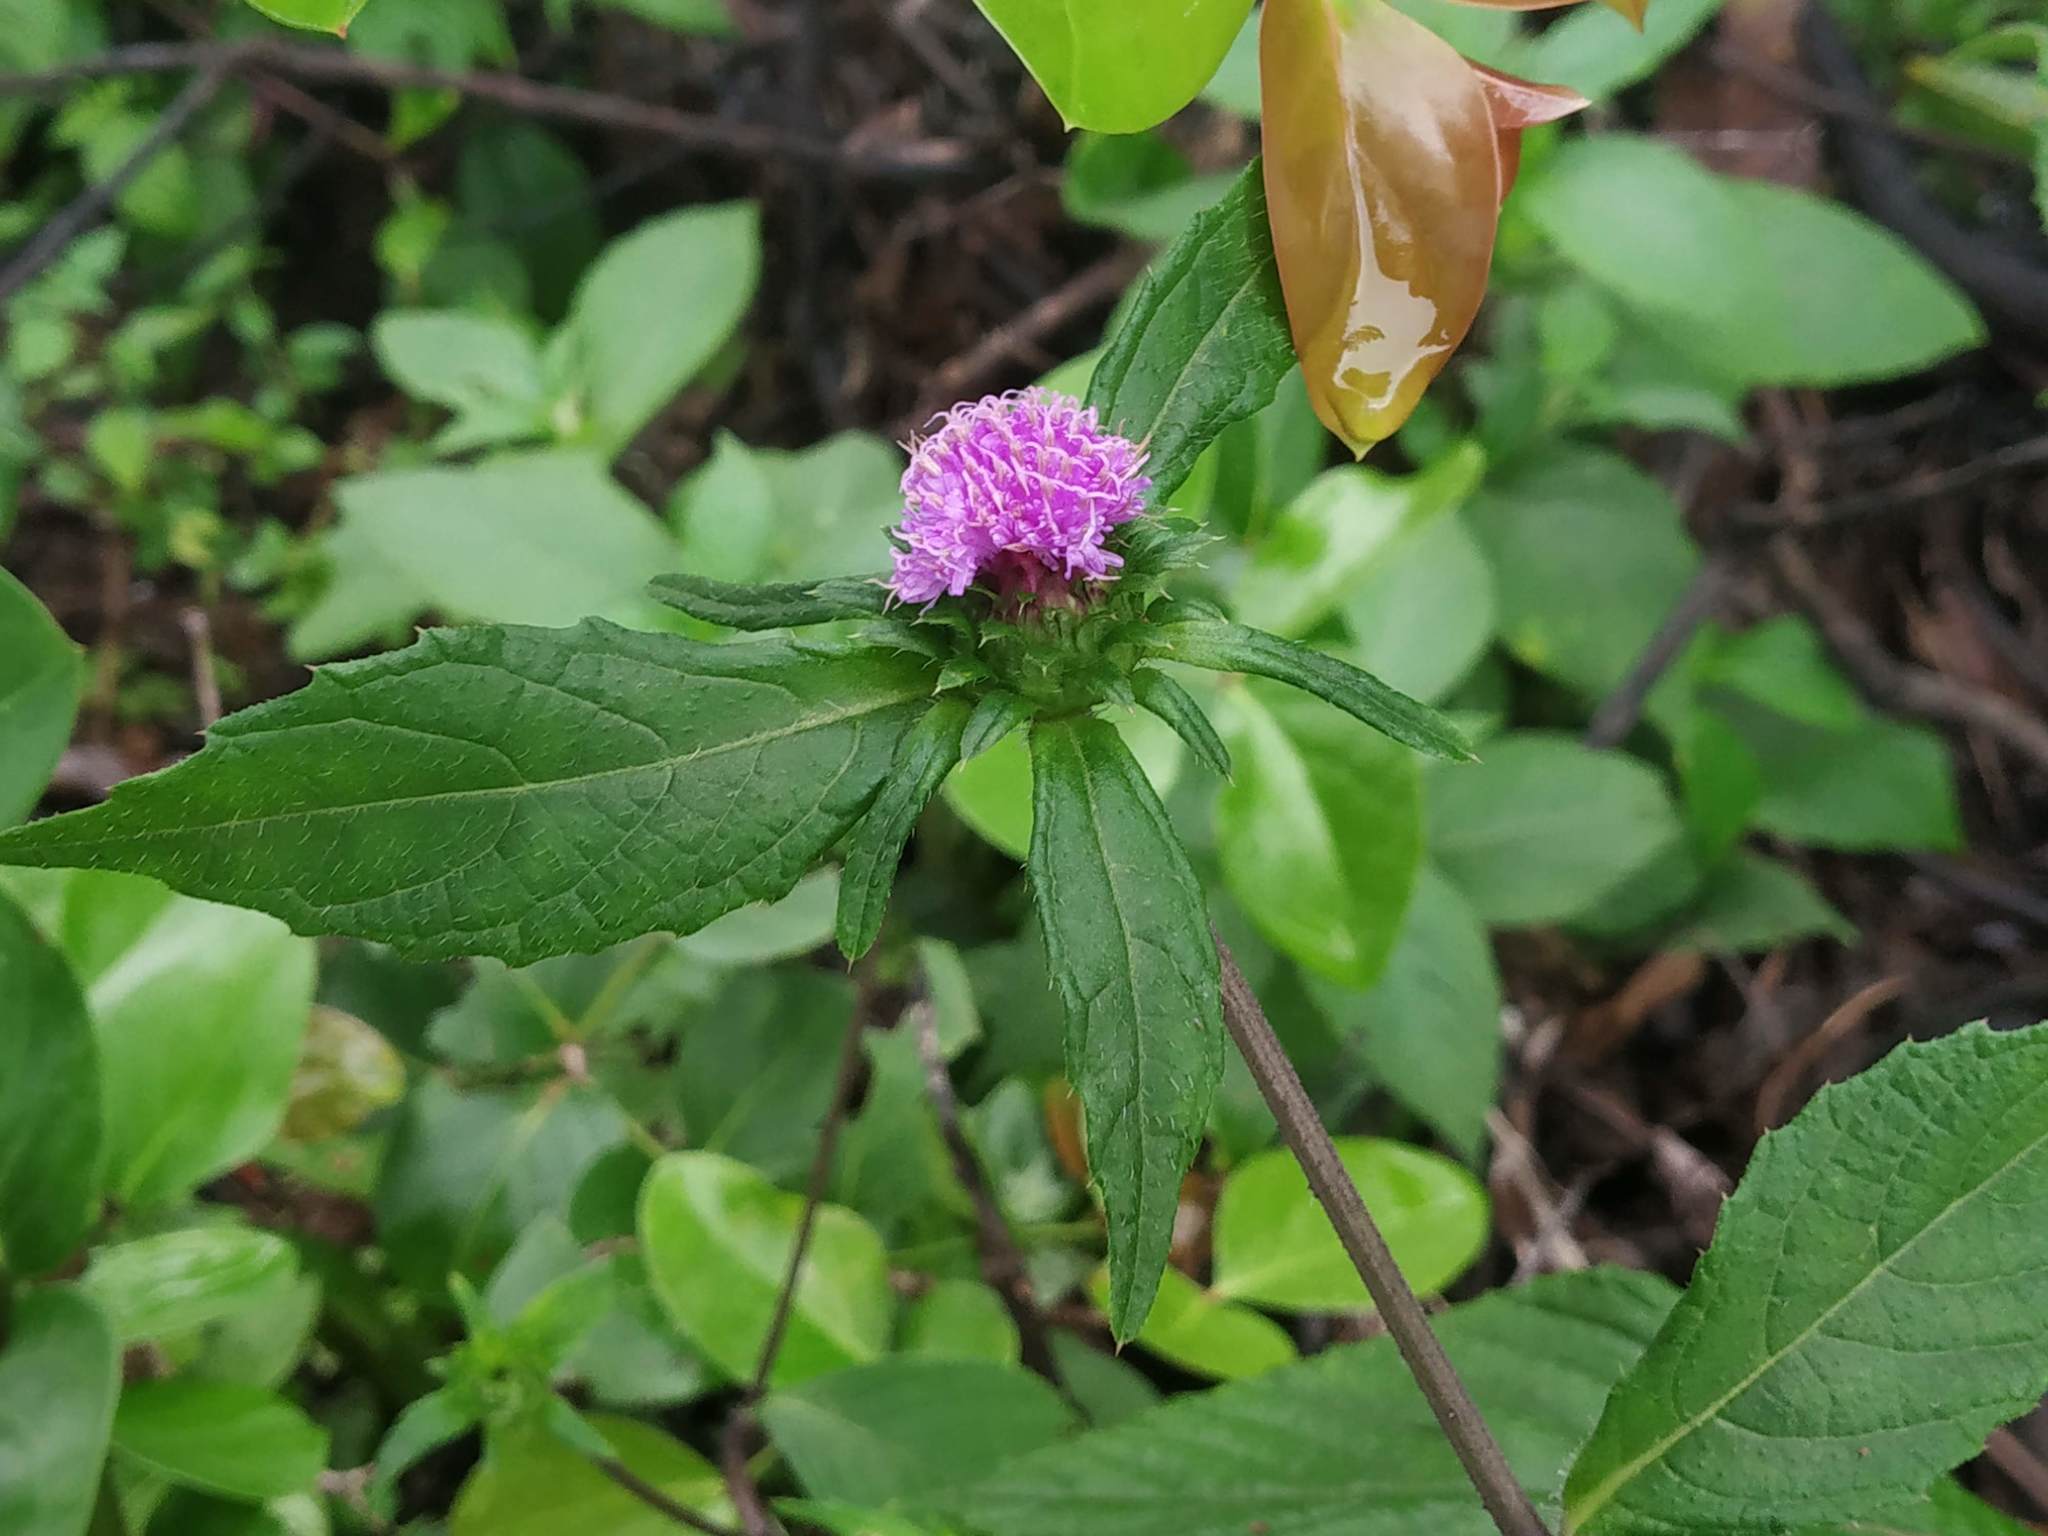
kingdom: Plantae
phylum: Tracheophyta
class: Magnoliopsida
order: Asterales
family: Asteraceae
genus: Phyllocephalum
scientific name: Phyllocephalum scabridum
